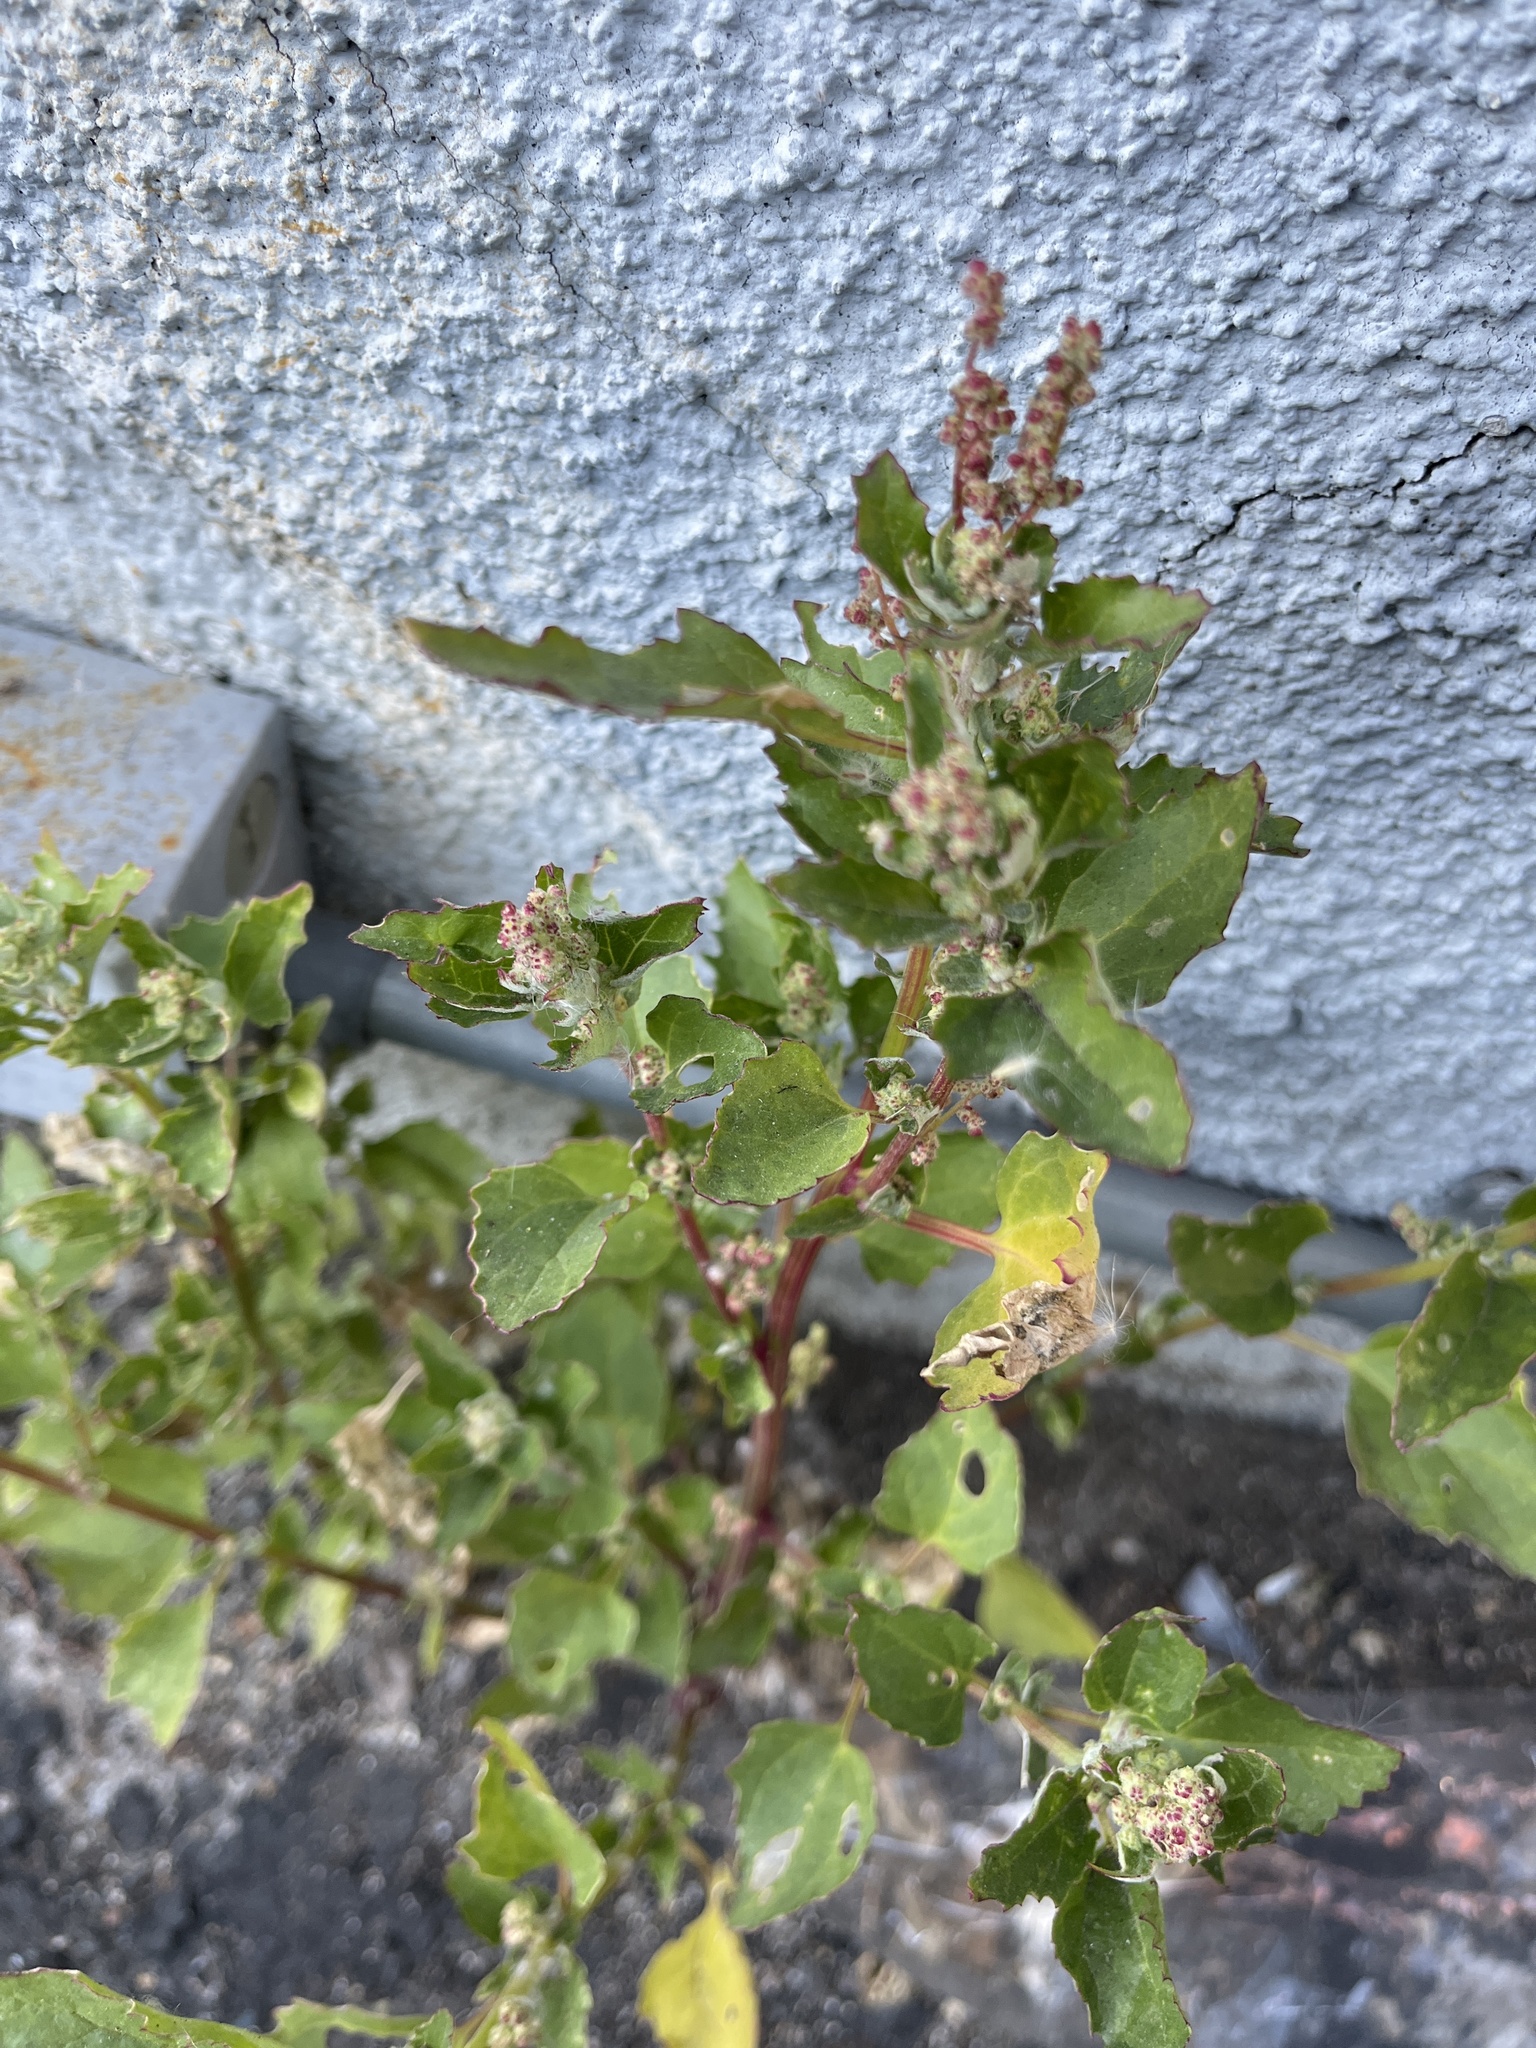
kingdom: Plantae
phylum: Tracheophyta
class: Magnoliopsida
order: Caryophyllales
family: Amaranthaceae
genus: Chenopodiastrum
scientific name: Chenopodiastrum murale
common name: Sowbane
